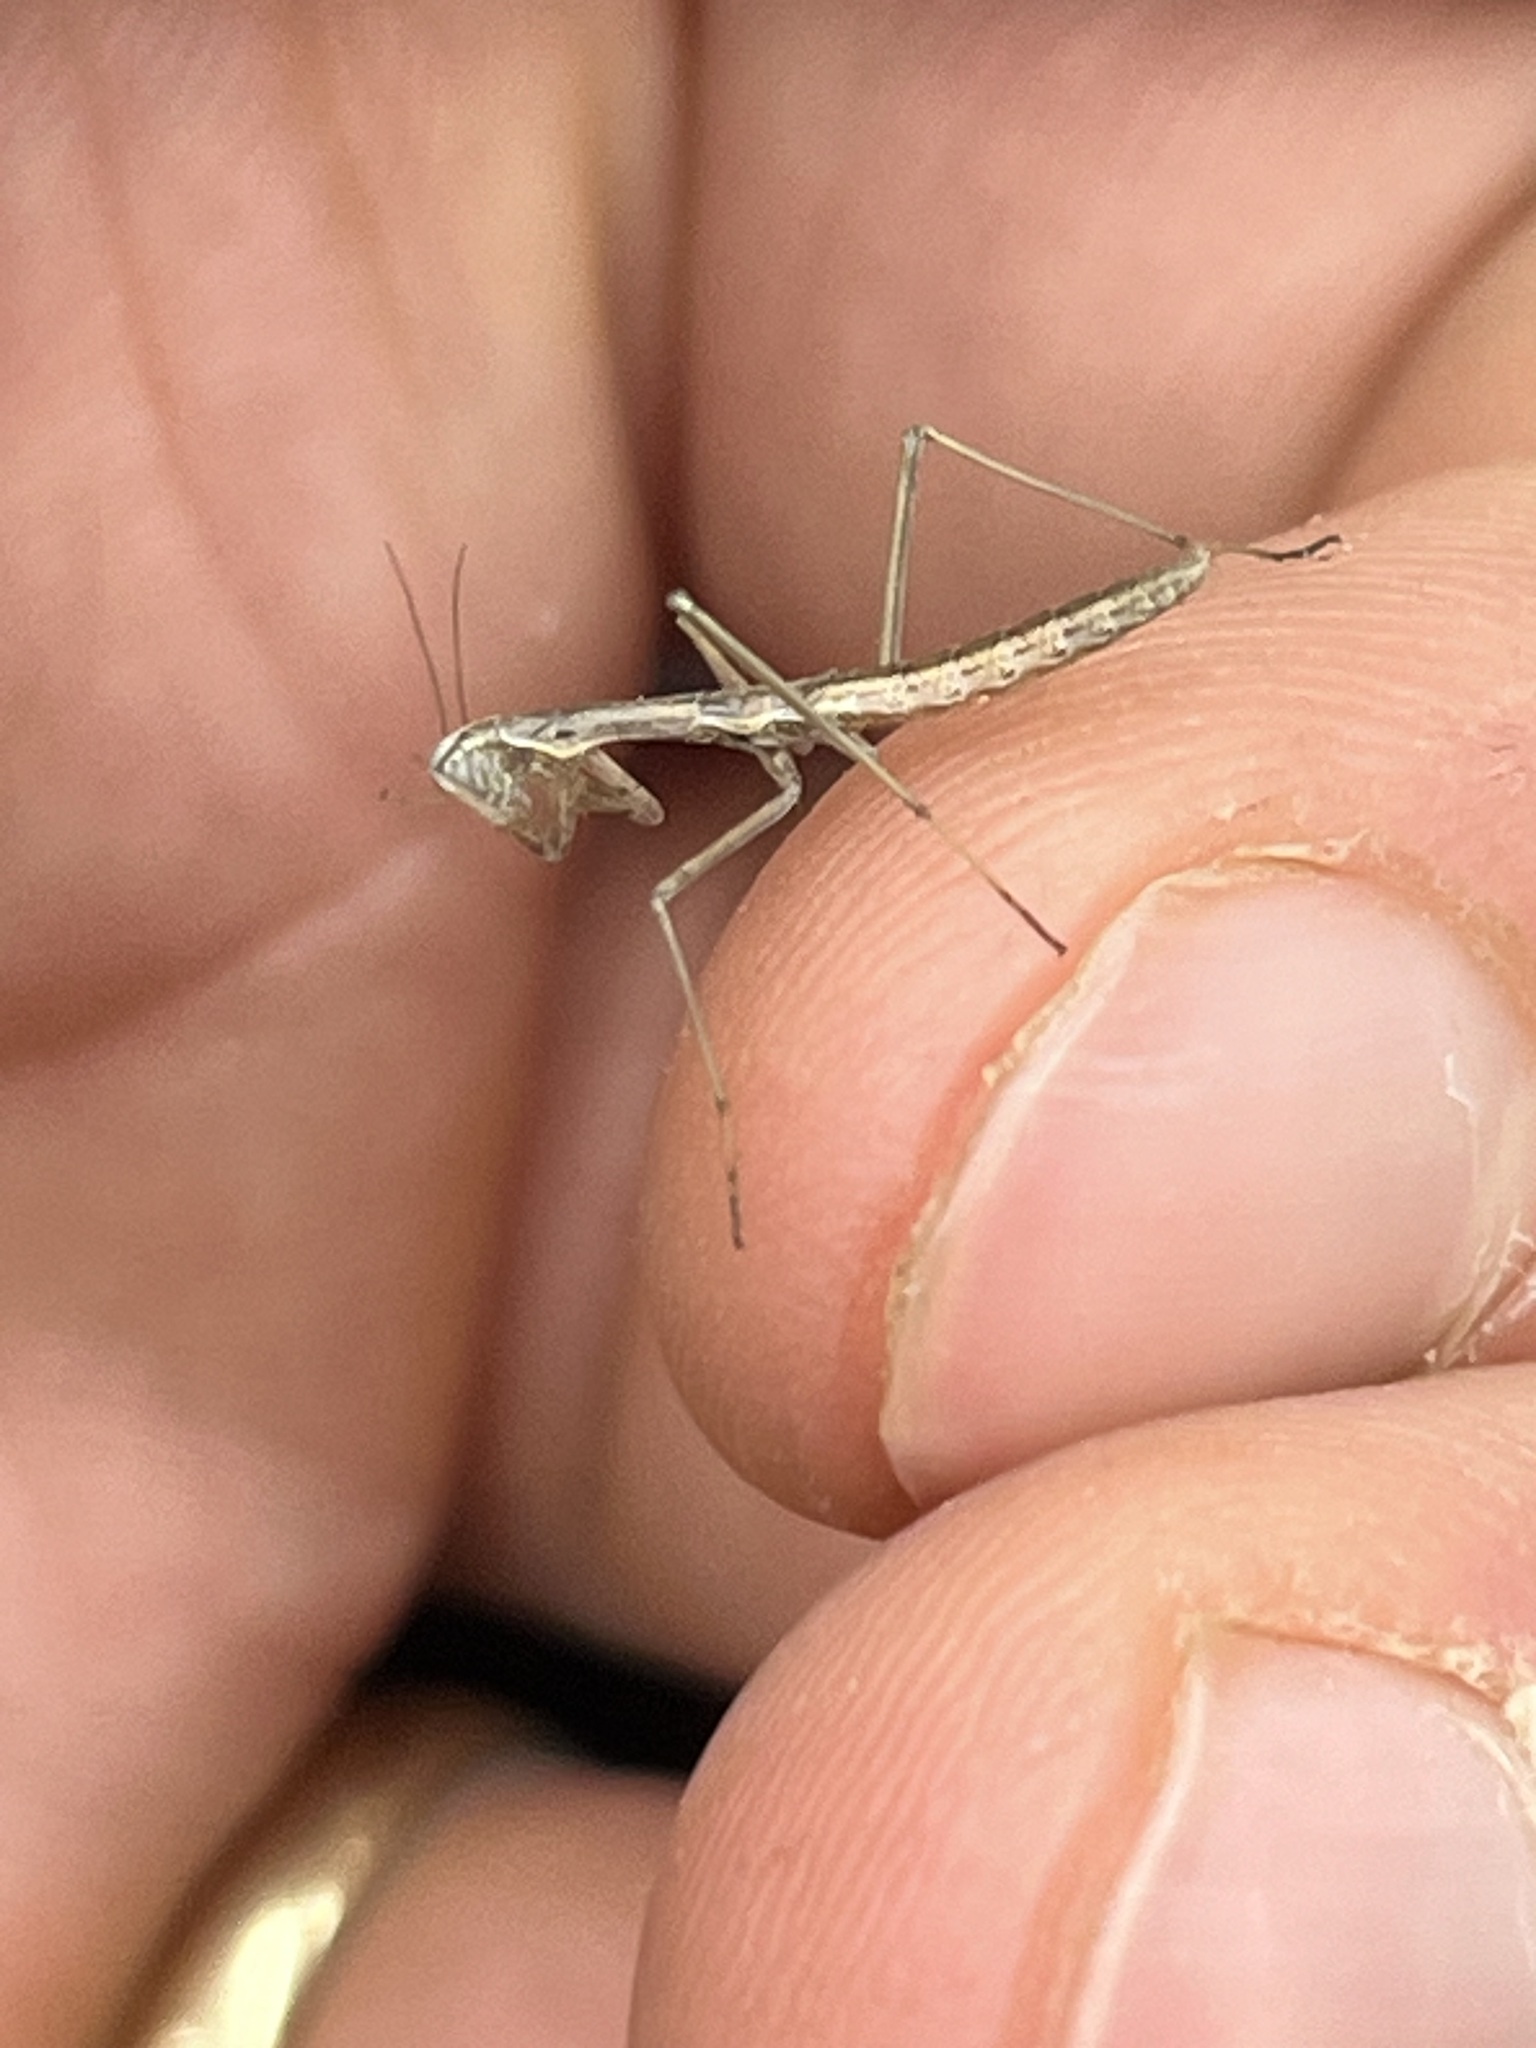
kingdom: Animalia
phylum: Arthropoda
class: Insecta
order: Mantodea
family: Rivetinidae
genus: Eremoplana
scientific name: Eremoplana infelix
